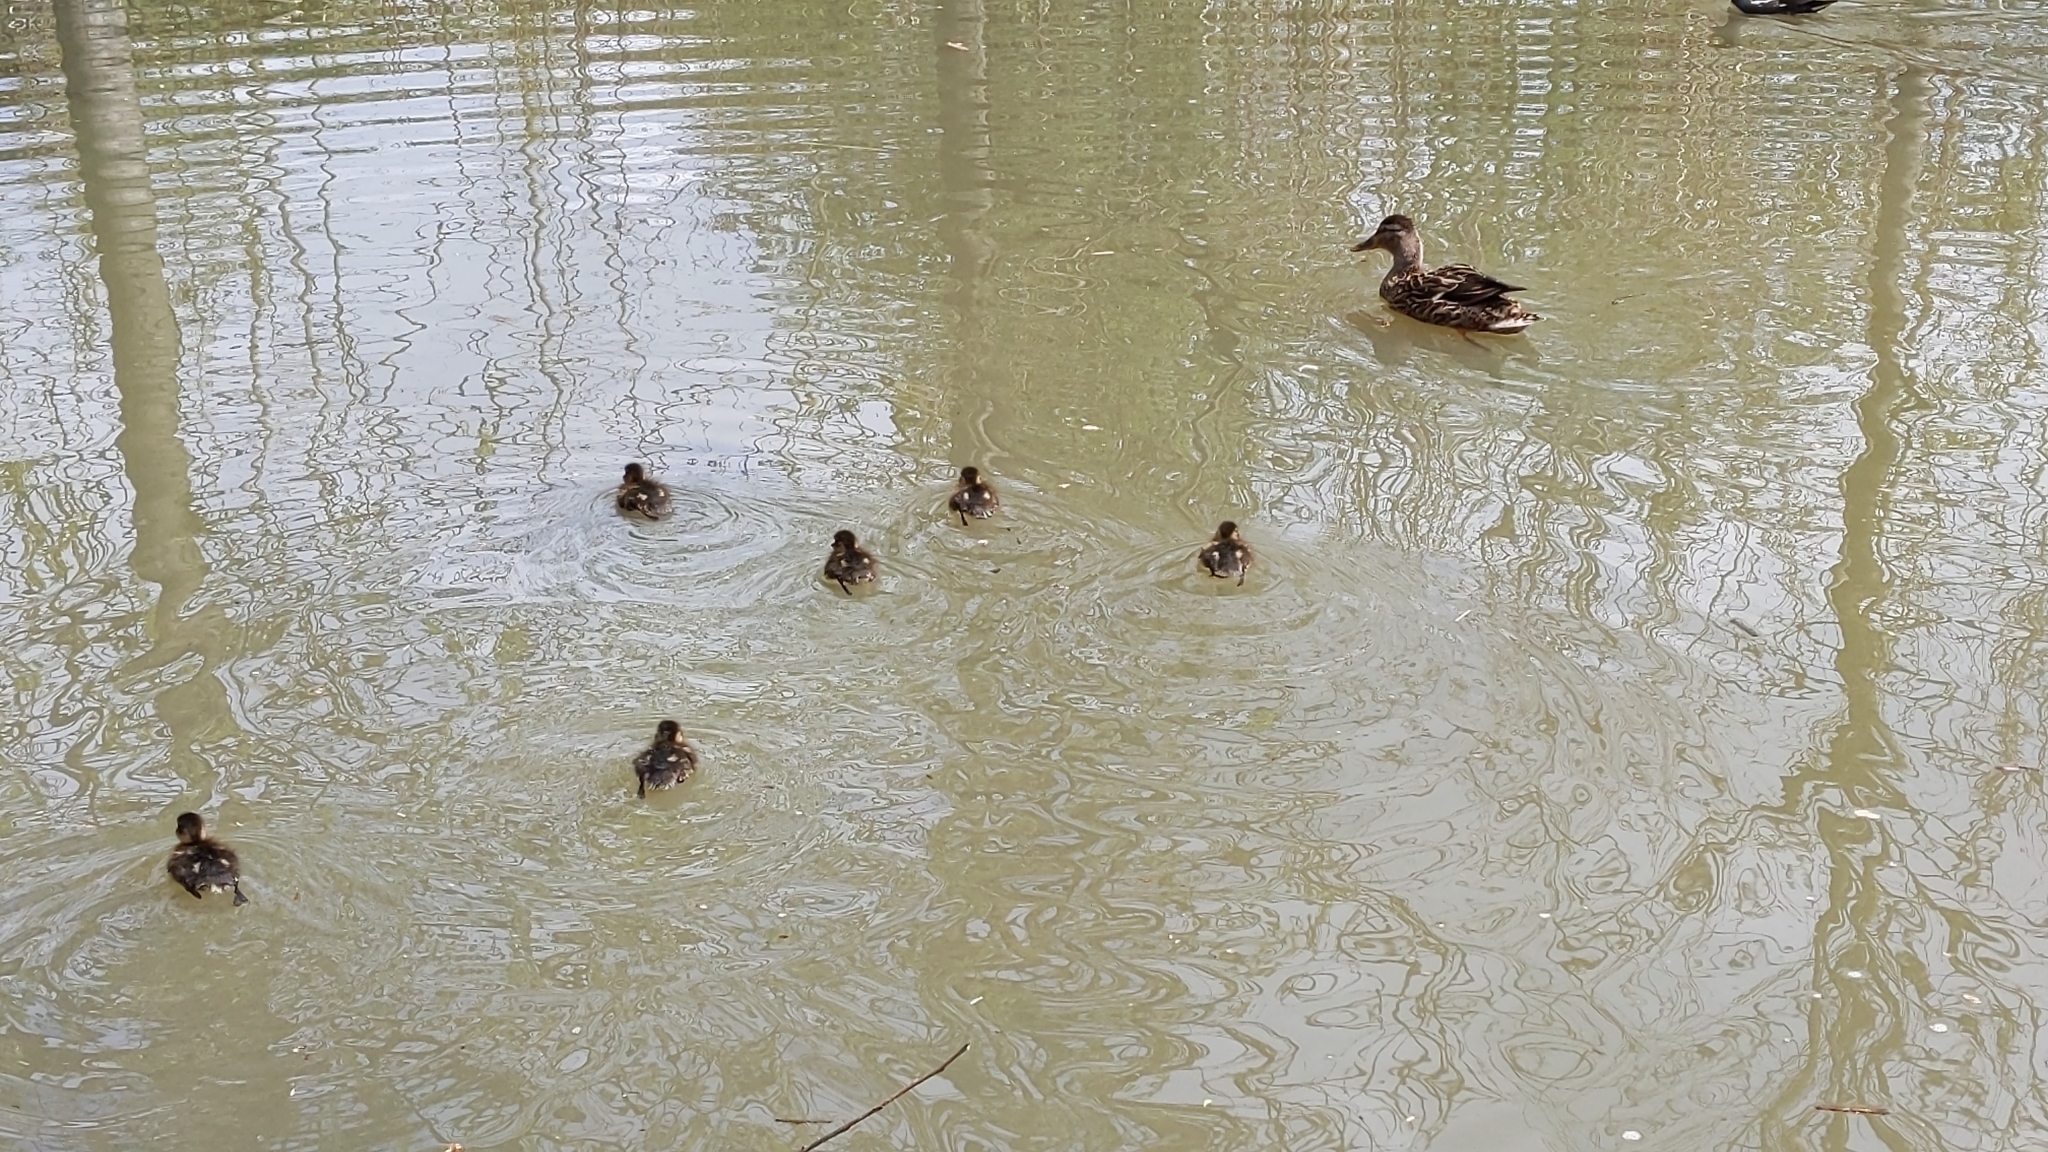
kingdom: Animalia
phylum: Chordata
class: Aves
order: Anseriformes
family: Anatidae
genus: Anas
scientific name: Anas platyrhynchos
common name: Mallard
